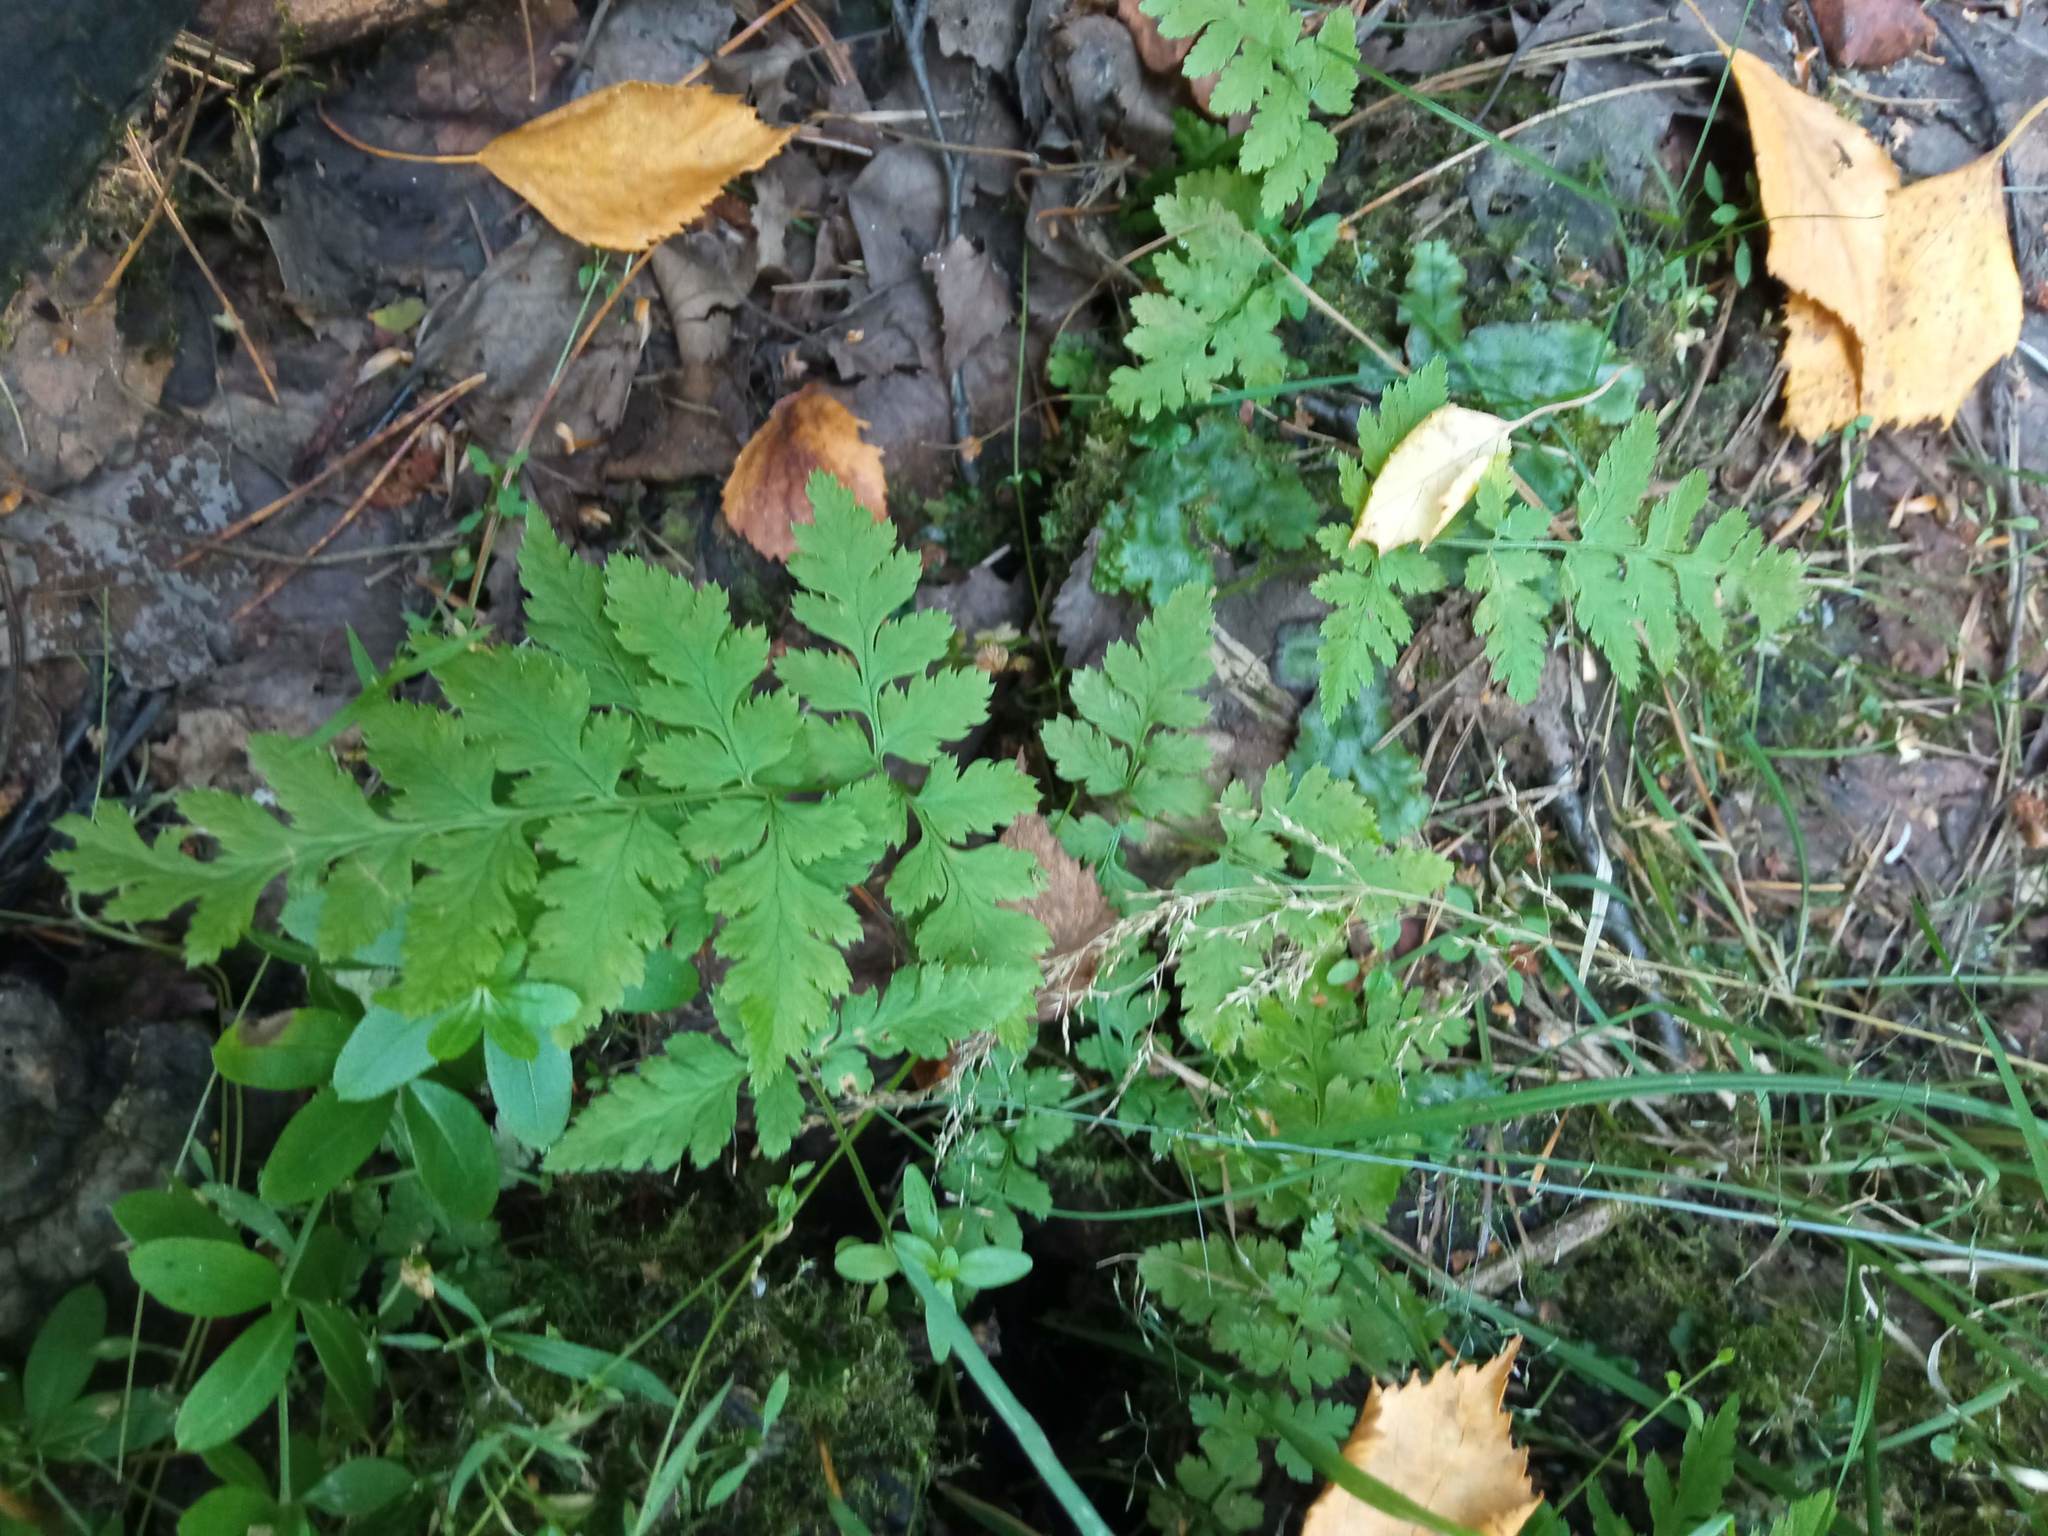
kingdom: Plantae
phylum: Tracheophyta
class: Polypodiopsida
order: Polypodiales
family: Dryopteridaceae
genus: Dryopteris
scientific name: Dryopteris carthusiana
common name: Narrow buckler-fern
